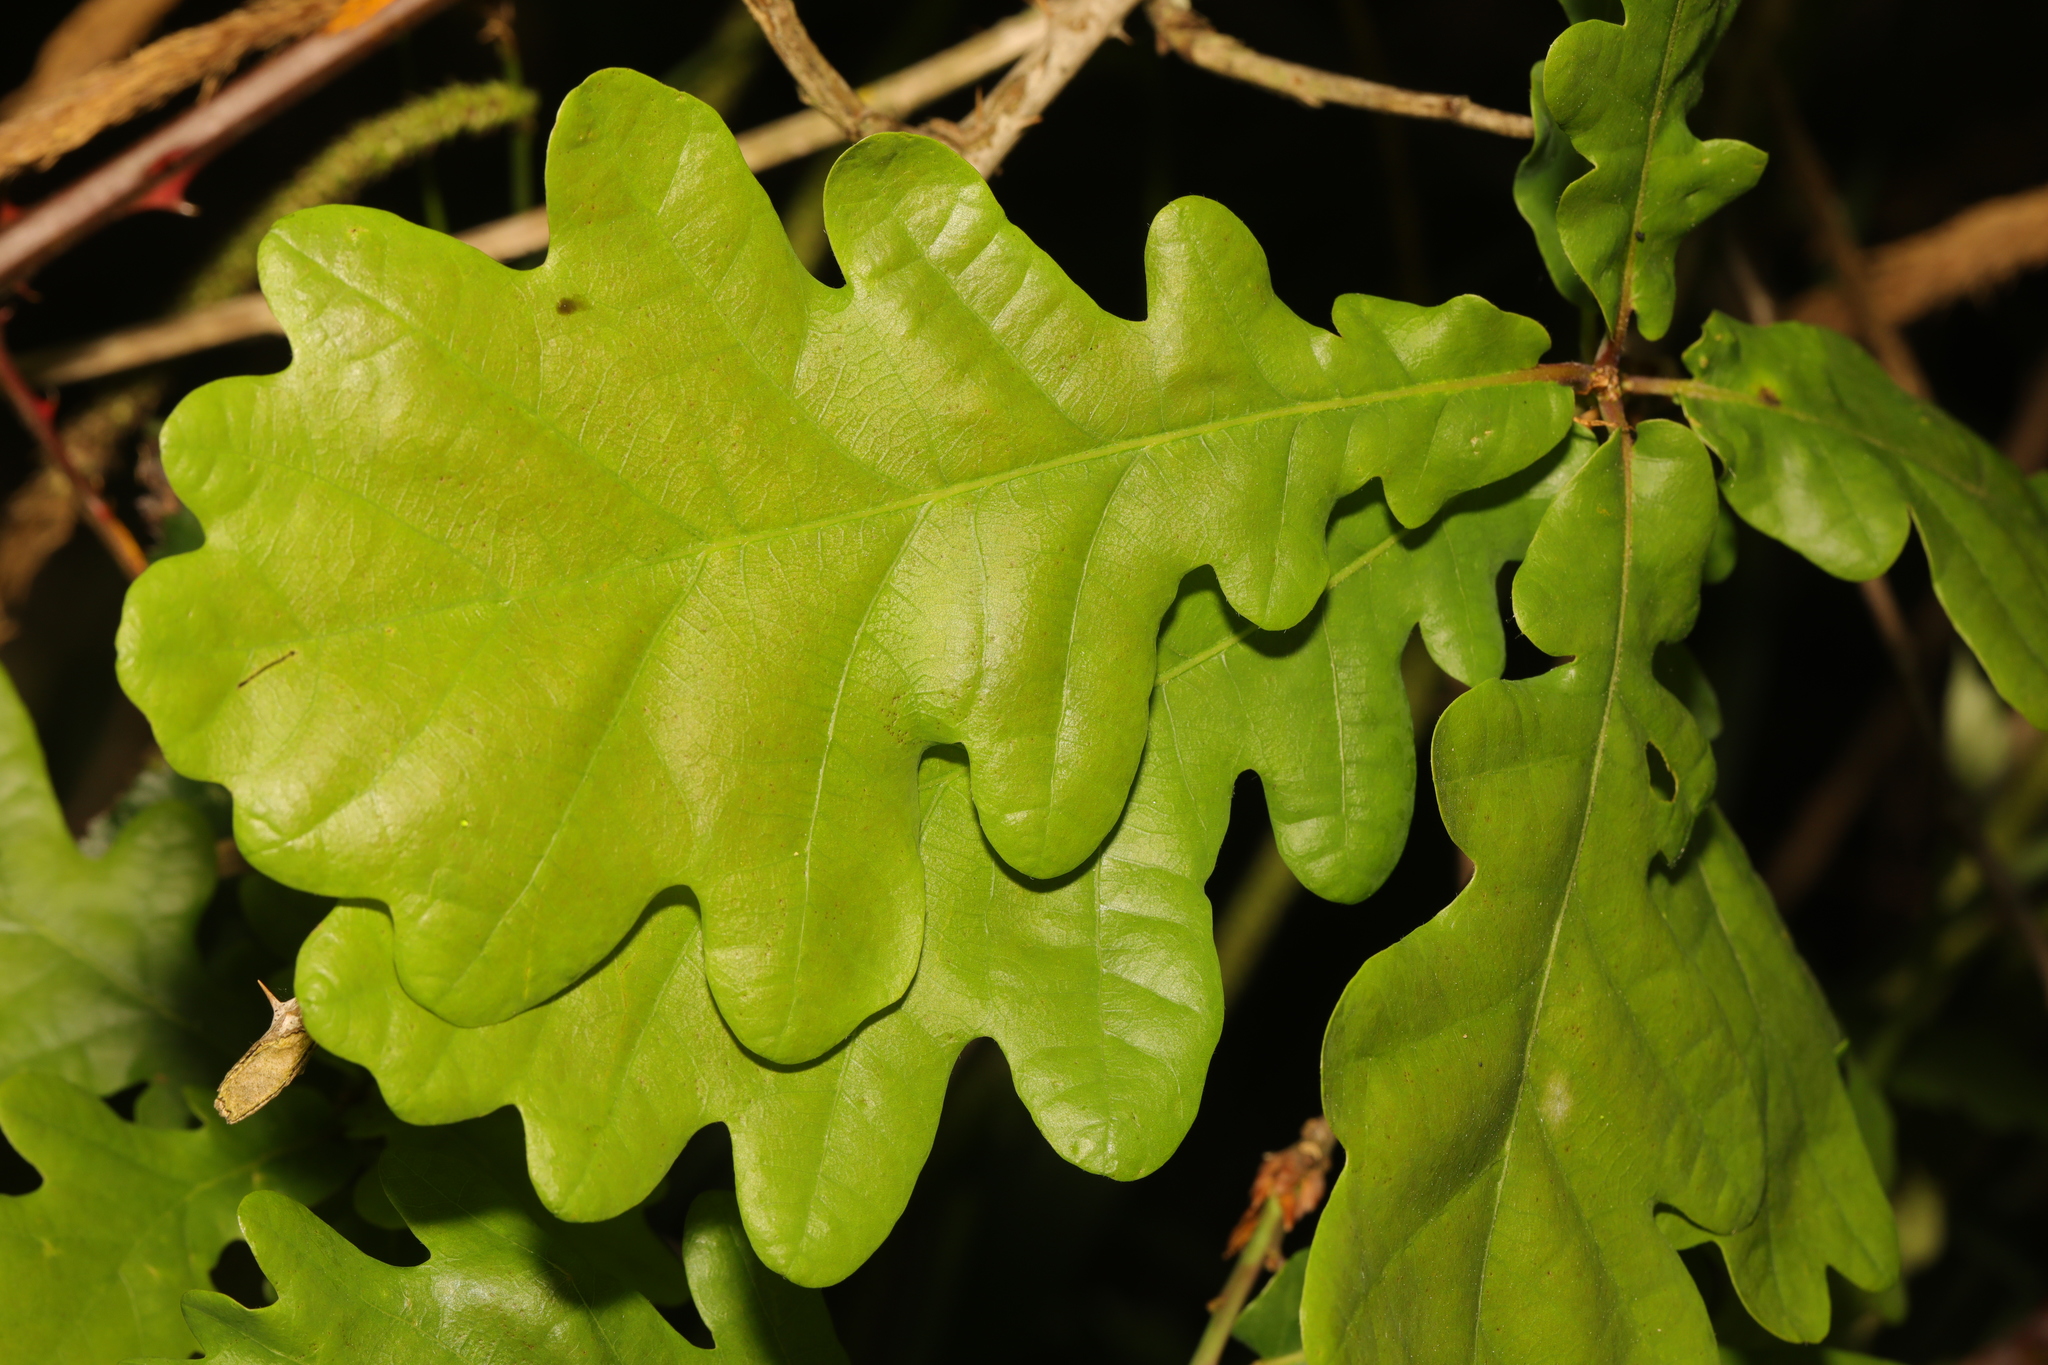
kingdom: Plantae
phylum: Tracheophyta
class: Magnoliopsida
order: Fagales
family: Fagaceae
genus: Quercus
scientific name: Quercus robur
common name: Pedunculate oak
